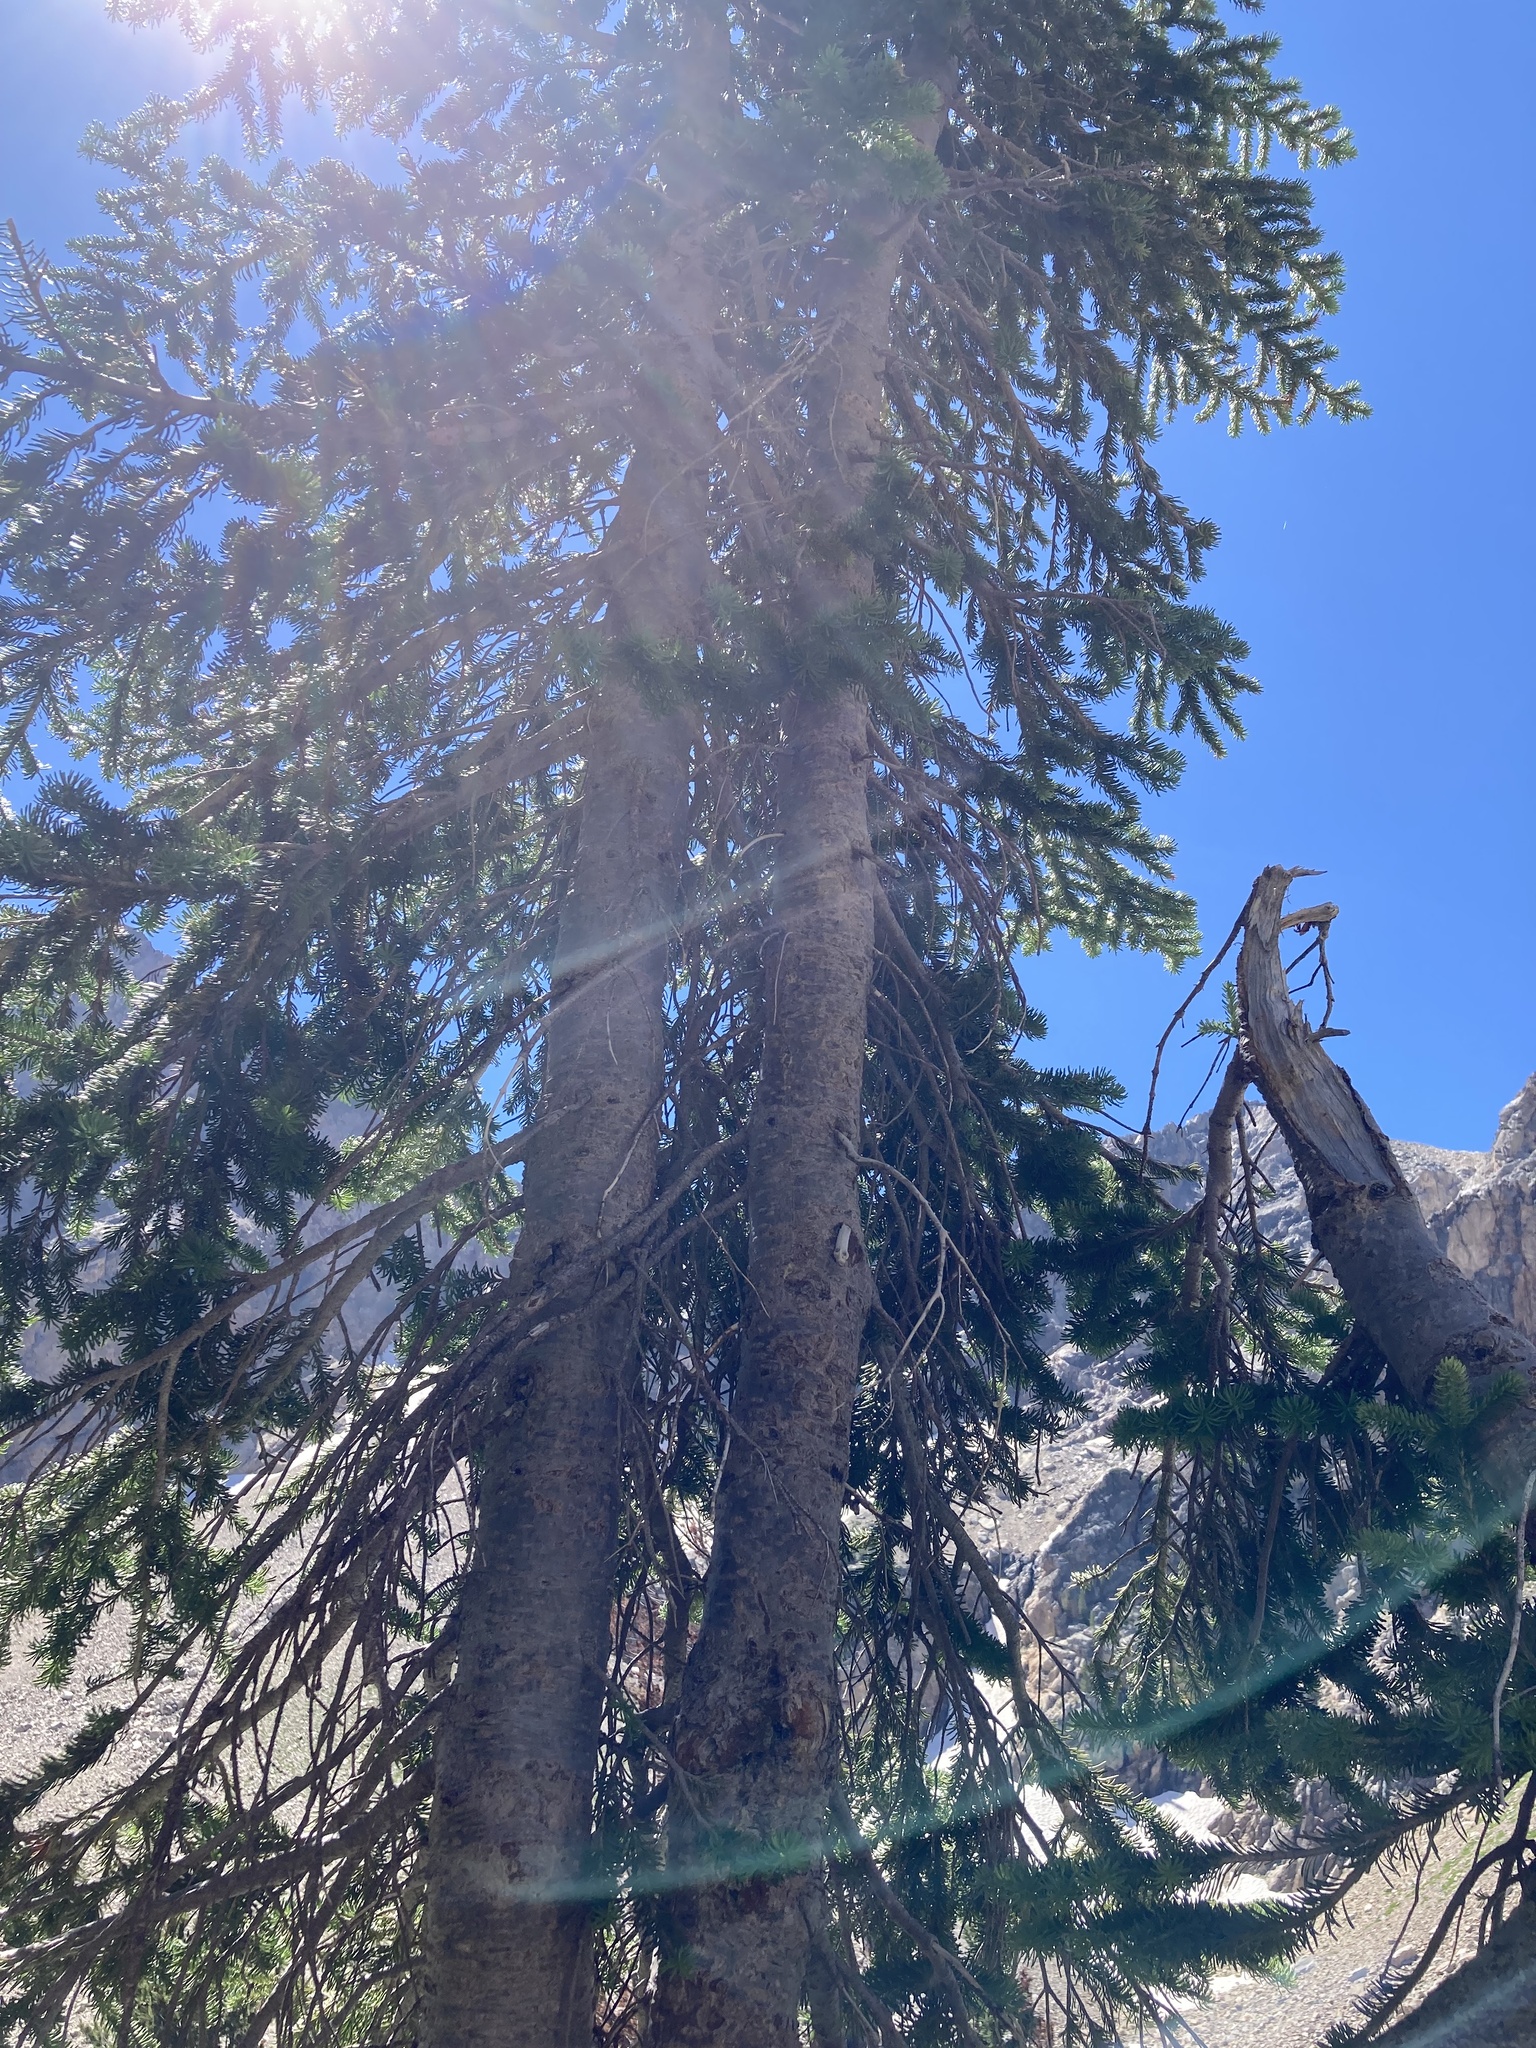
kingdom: Plantae
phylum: Tracheophyta
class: Pinopsida
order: Pinales
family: Pinaceae
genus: Abies
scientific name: Abies lasiocarpa
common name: Subalpine fir
